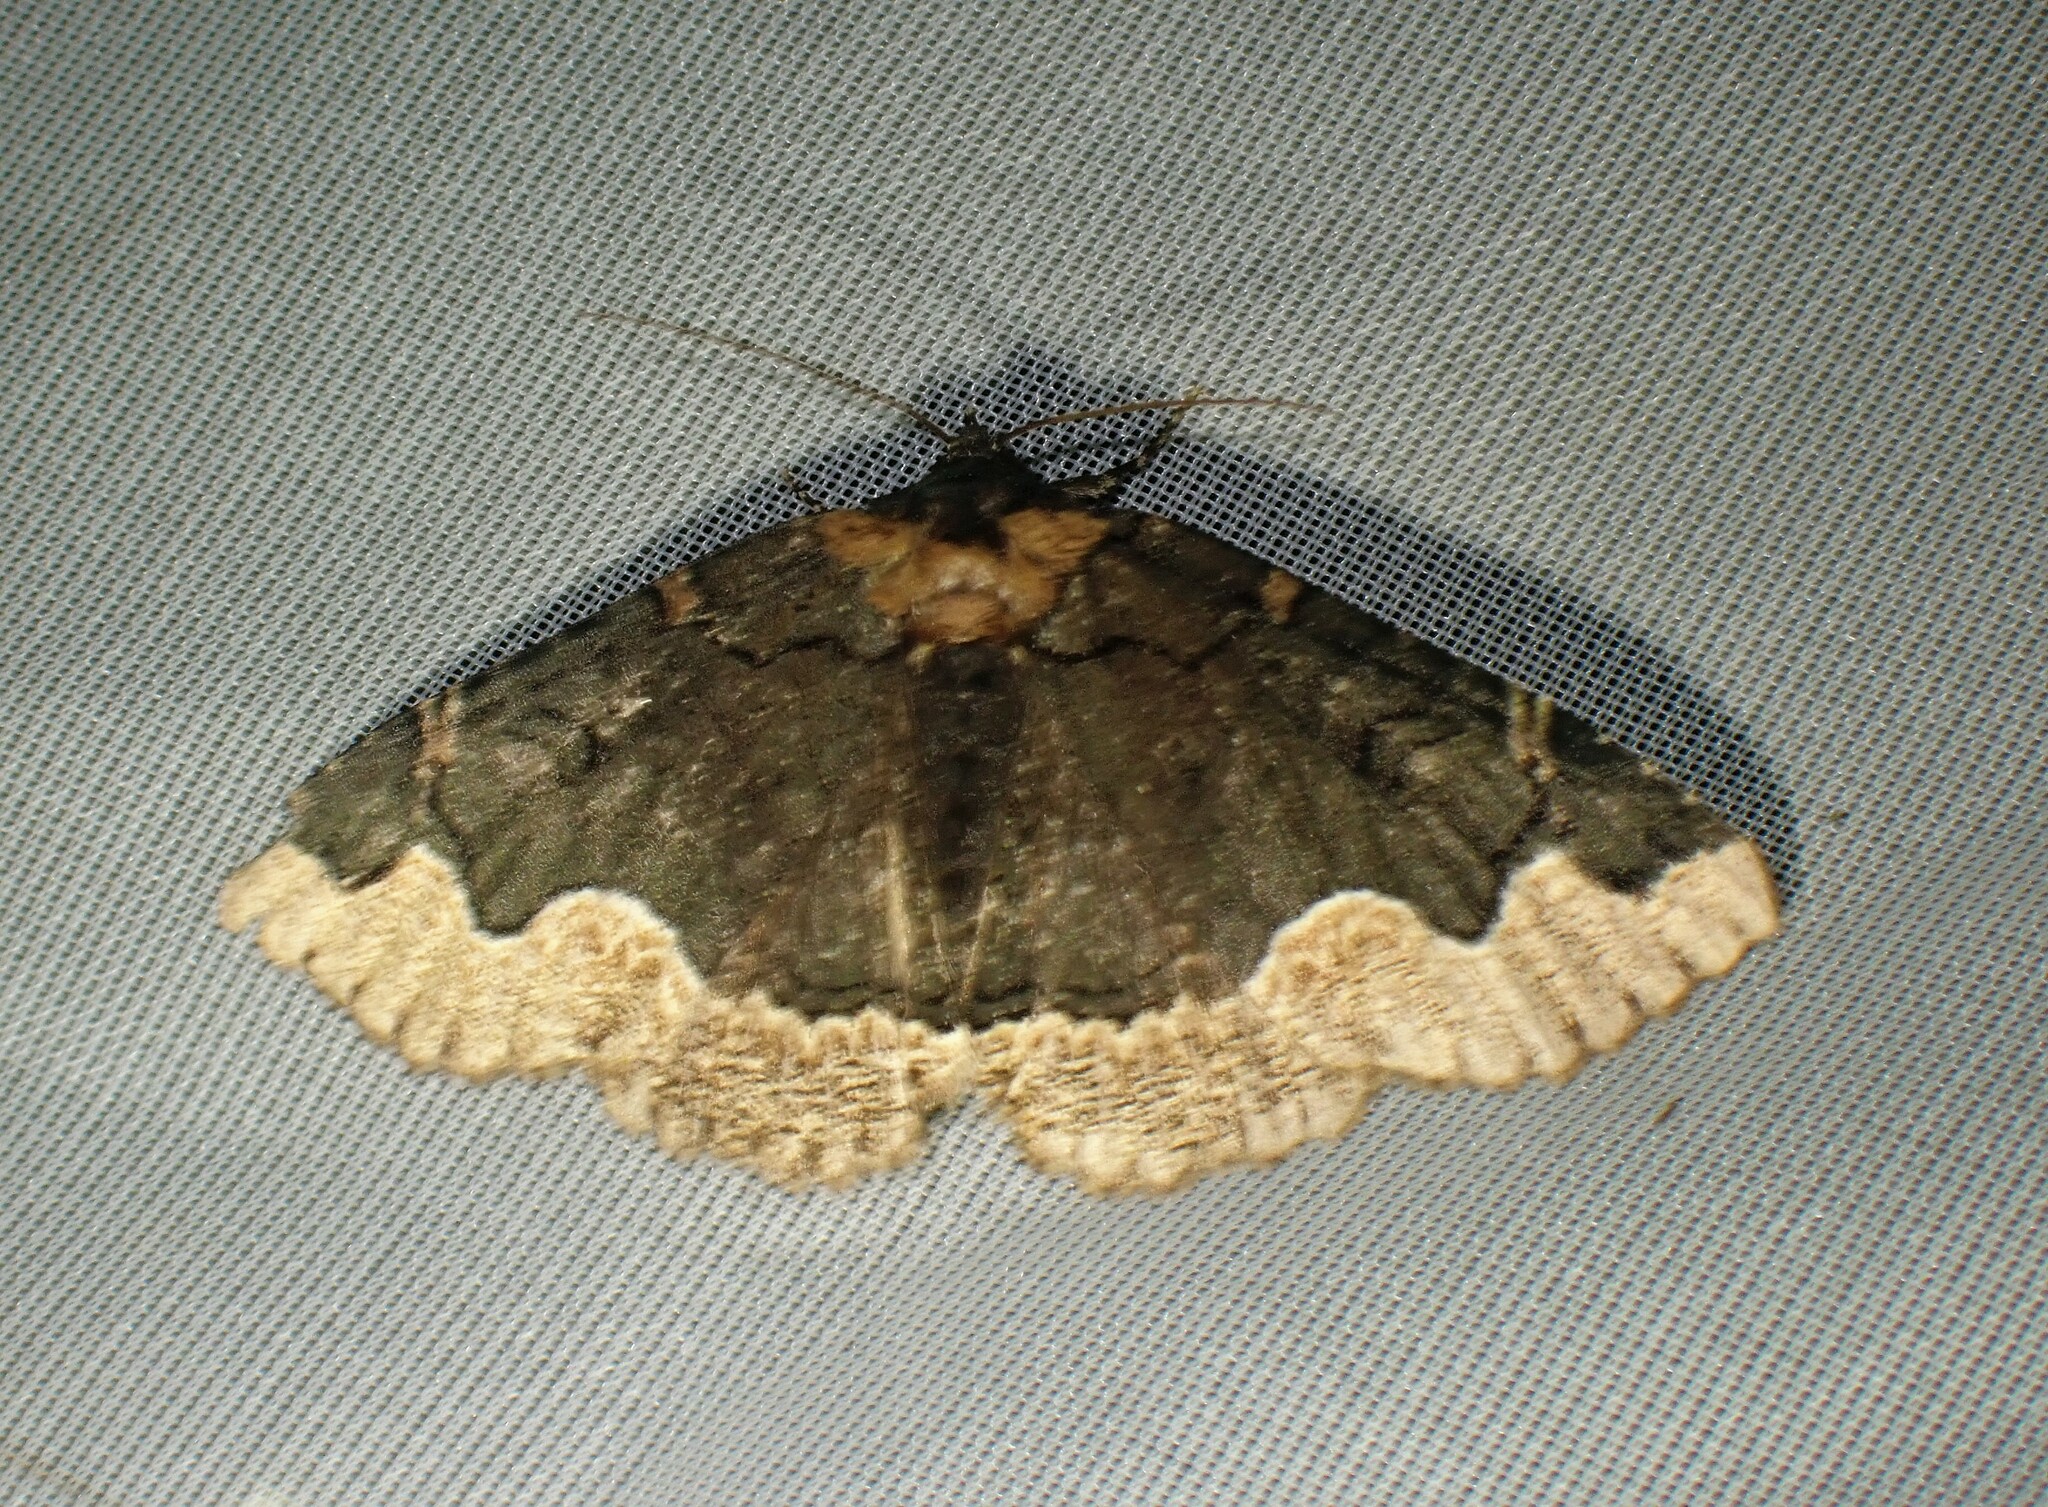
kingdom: Animalia
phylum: Arthropoda
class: Insecta
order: Lepidoptera
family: Erebidae
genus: Zale
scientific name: Zale horrida
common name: Horrid zale moth
